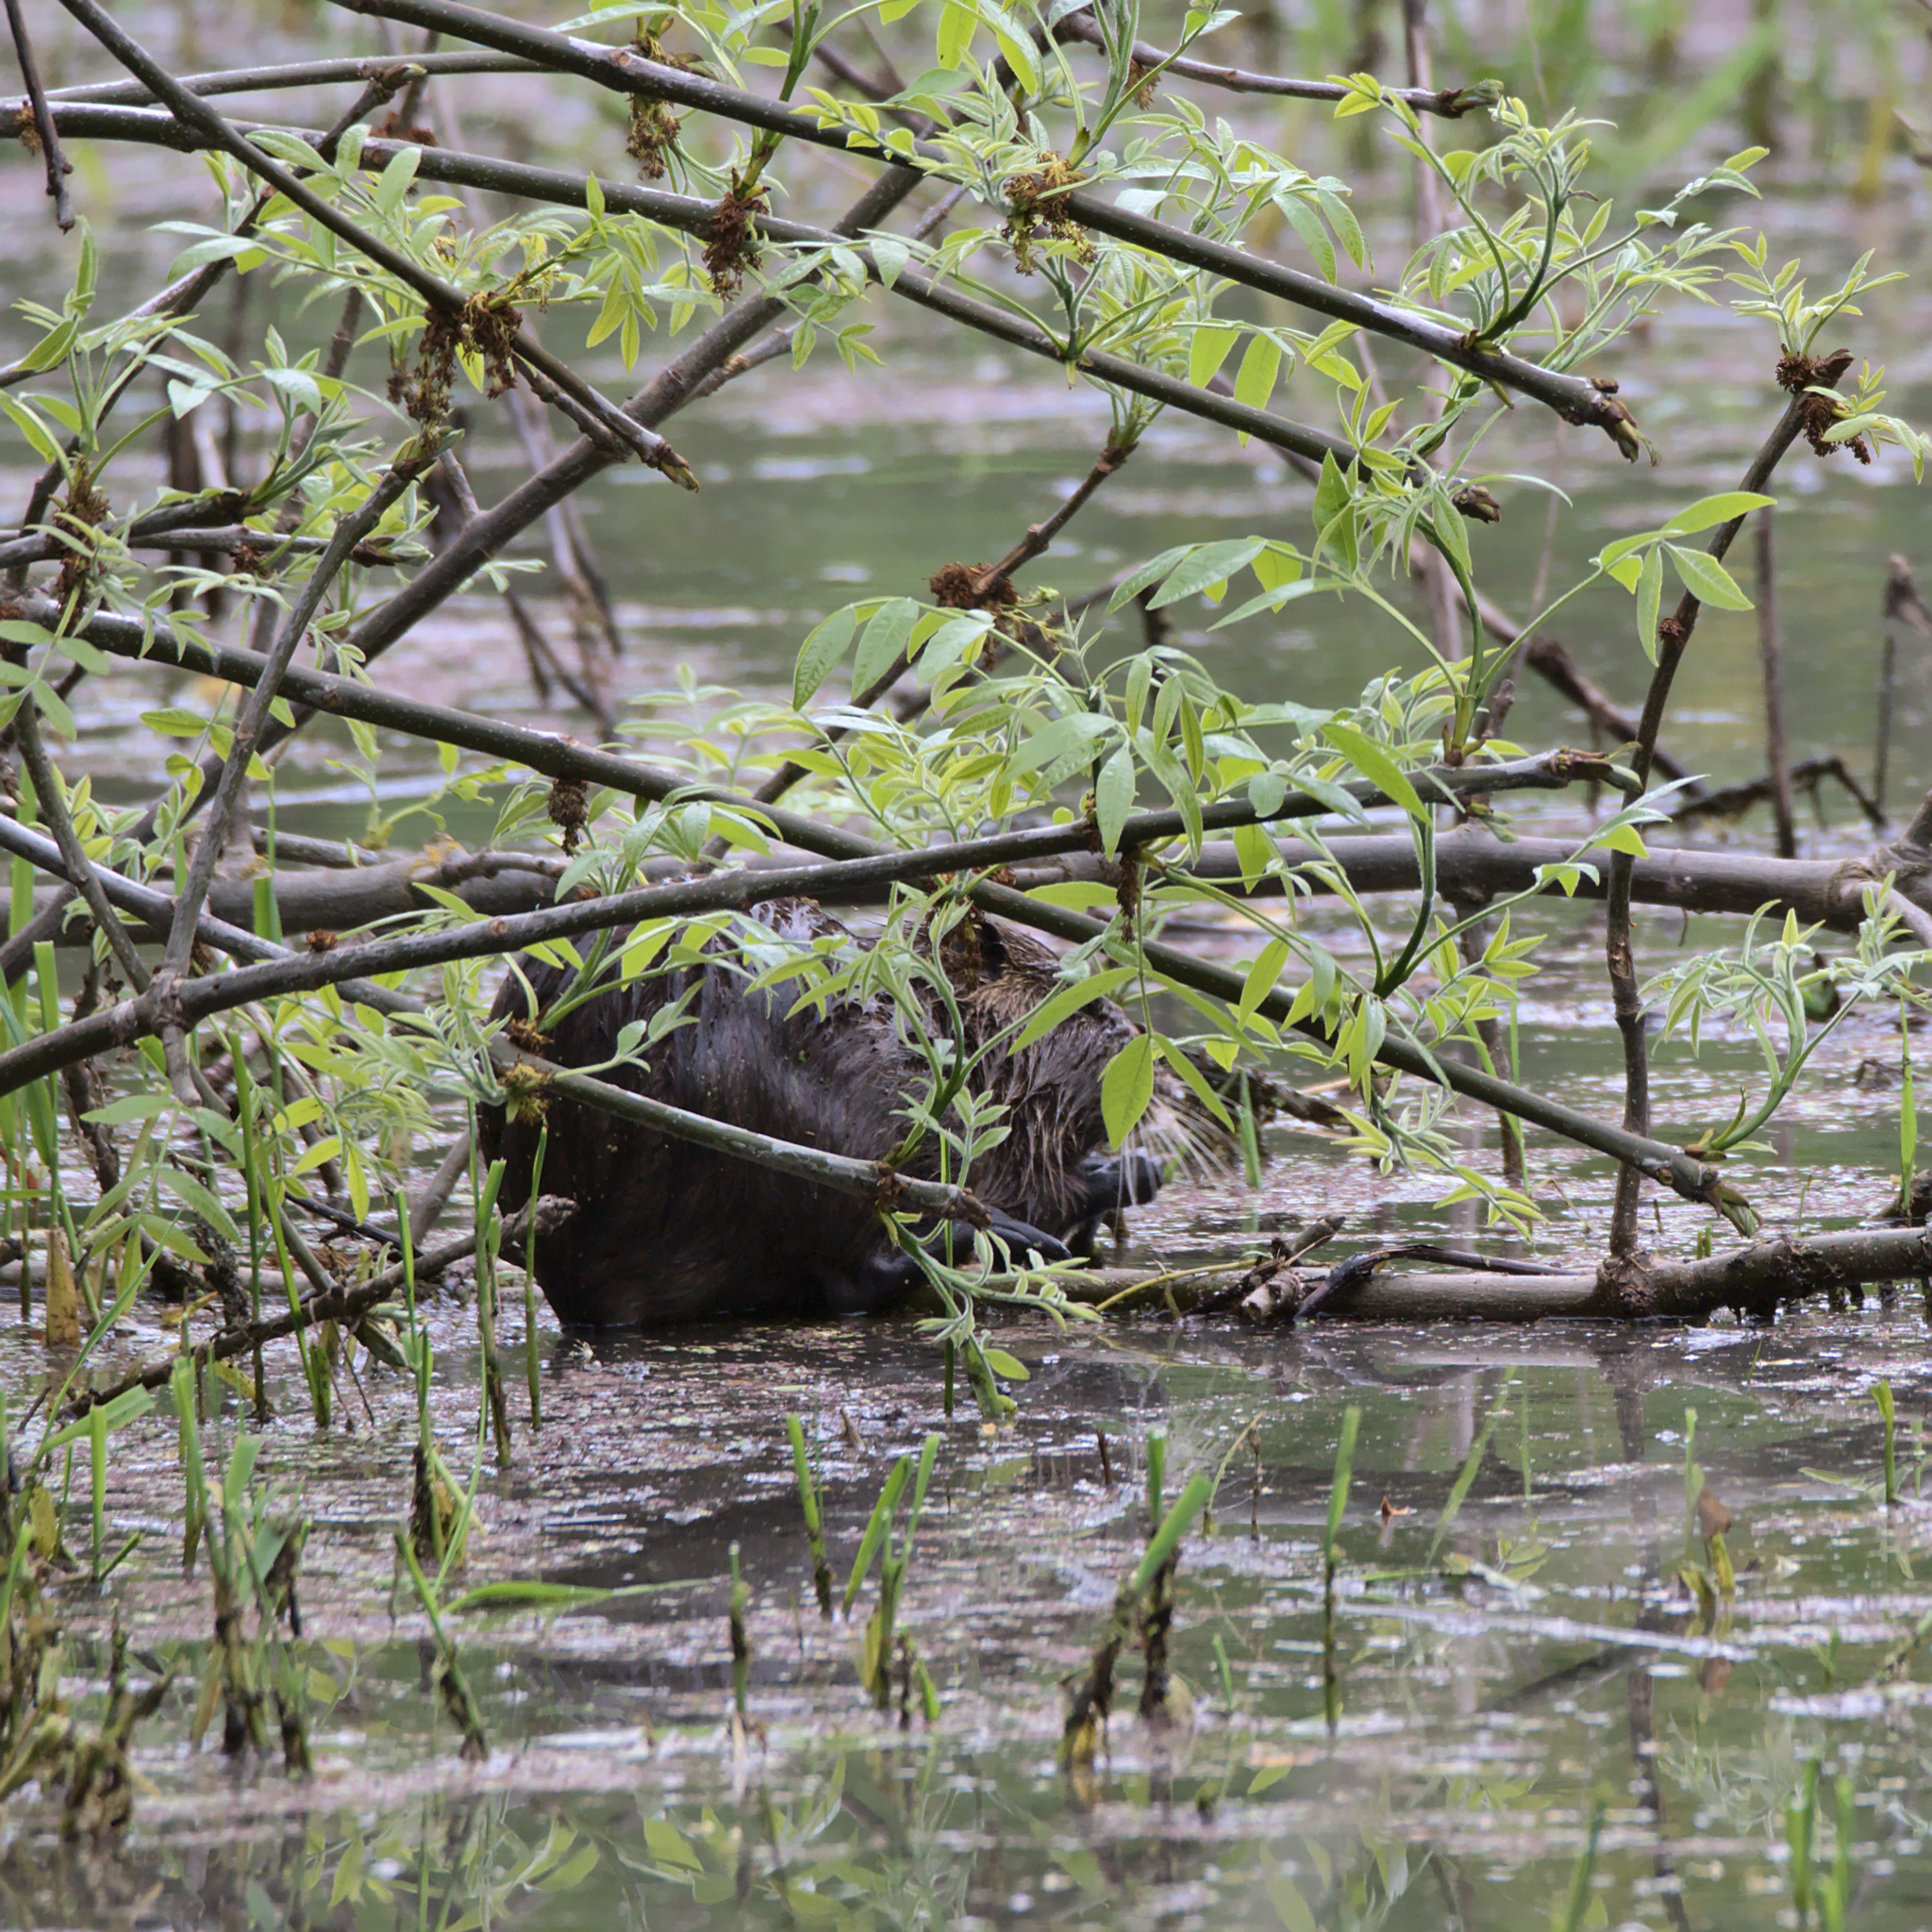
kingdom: Animalia
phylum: Chordata
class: Mammalia
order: Rodentia
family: Myocastoridae
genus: Myocastor
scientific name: Myocastor coypus
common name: Coypu
